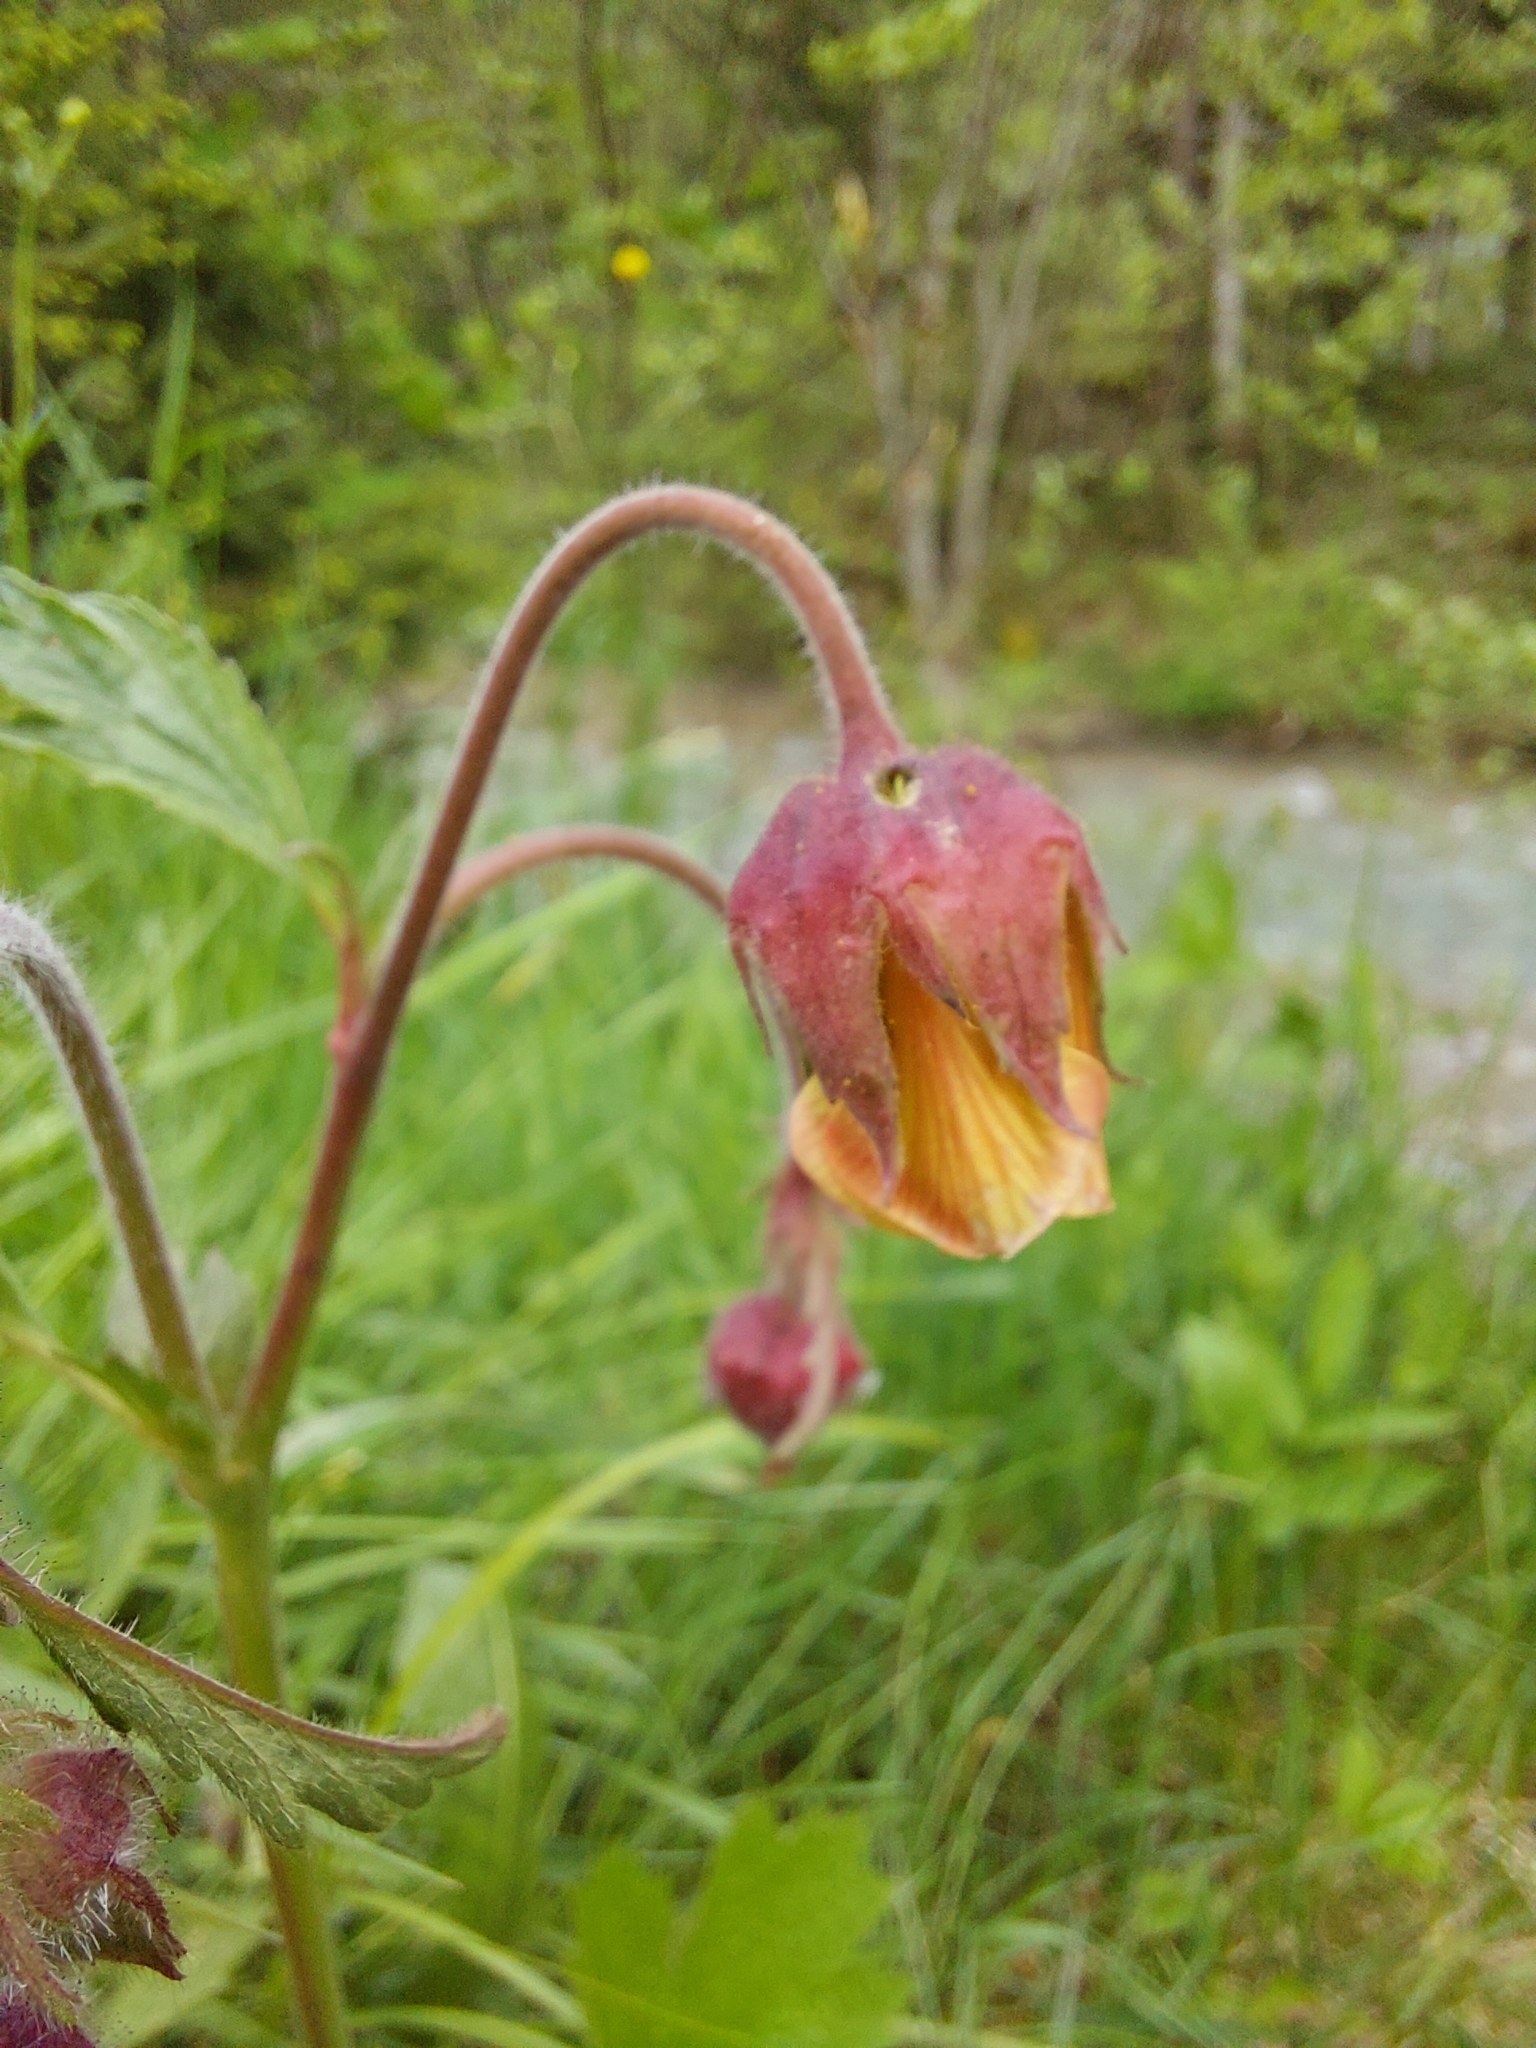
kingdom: Plantae
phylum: Tracheophyta
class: Magnoliopsida
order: Rosales
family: Rosaceae
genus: Geum
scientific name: Geum rivale
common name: Water avens
